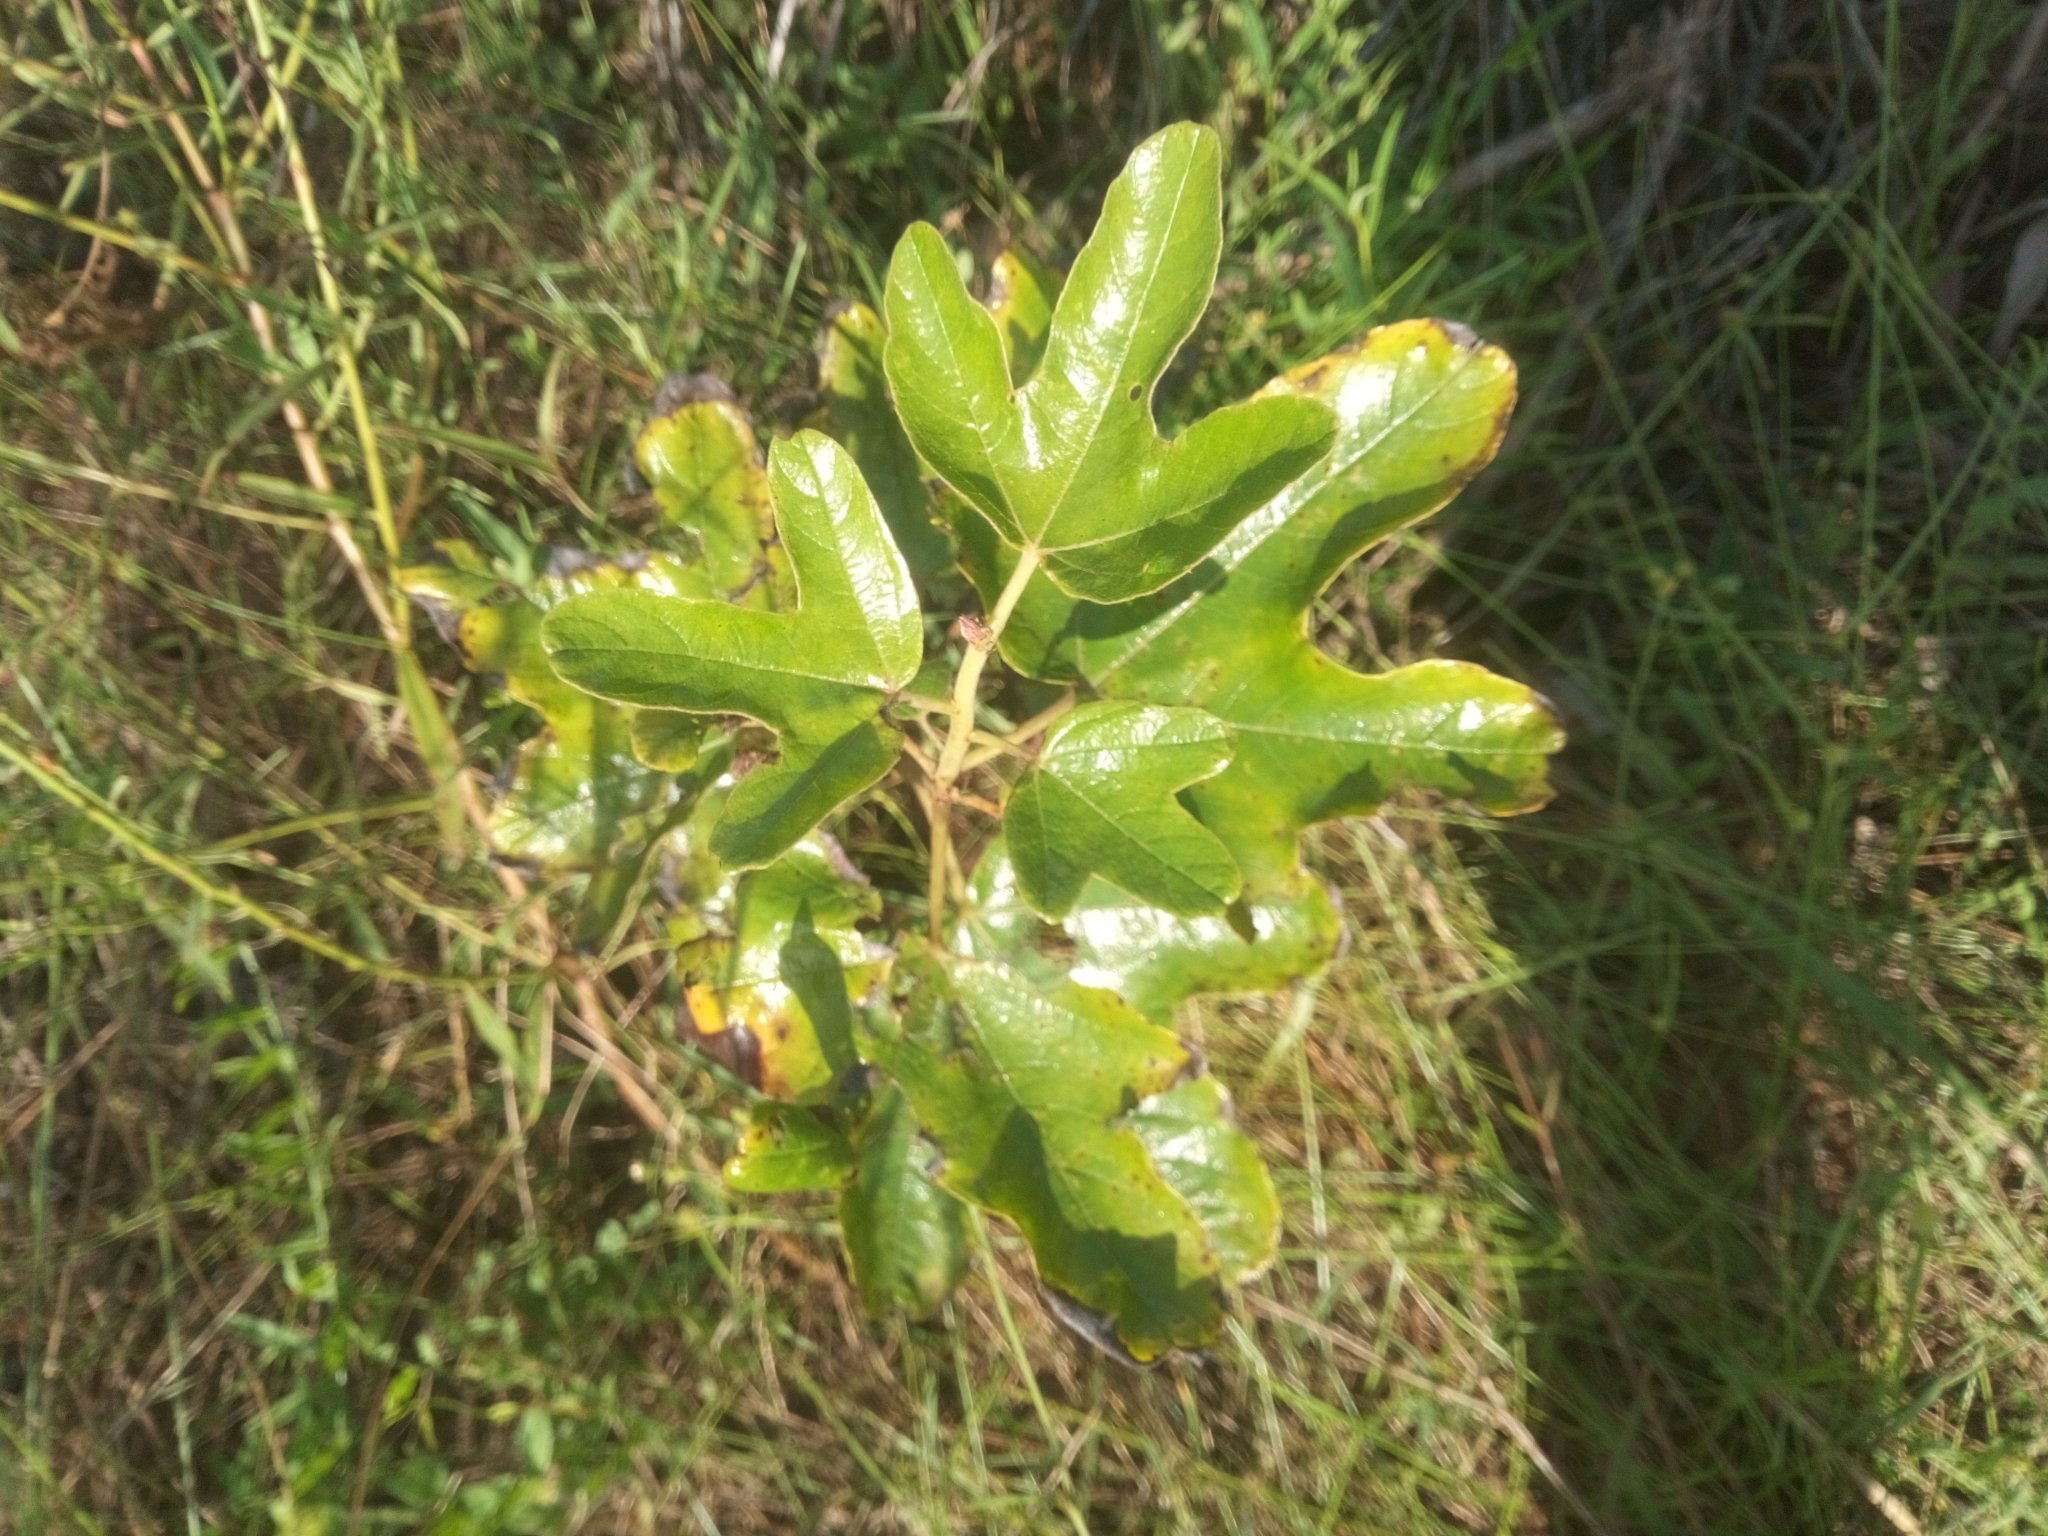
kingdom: Plantae
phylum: Tracheophyta
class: Magnoliopsida
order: Malvales
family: Cochlospermaceae
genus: Cochlospermum
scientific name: Cochlospermum planchonii
